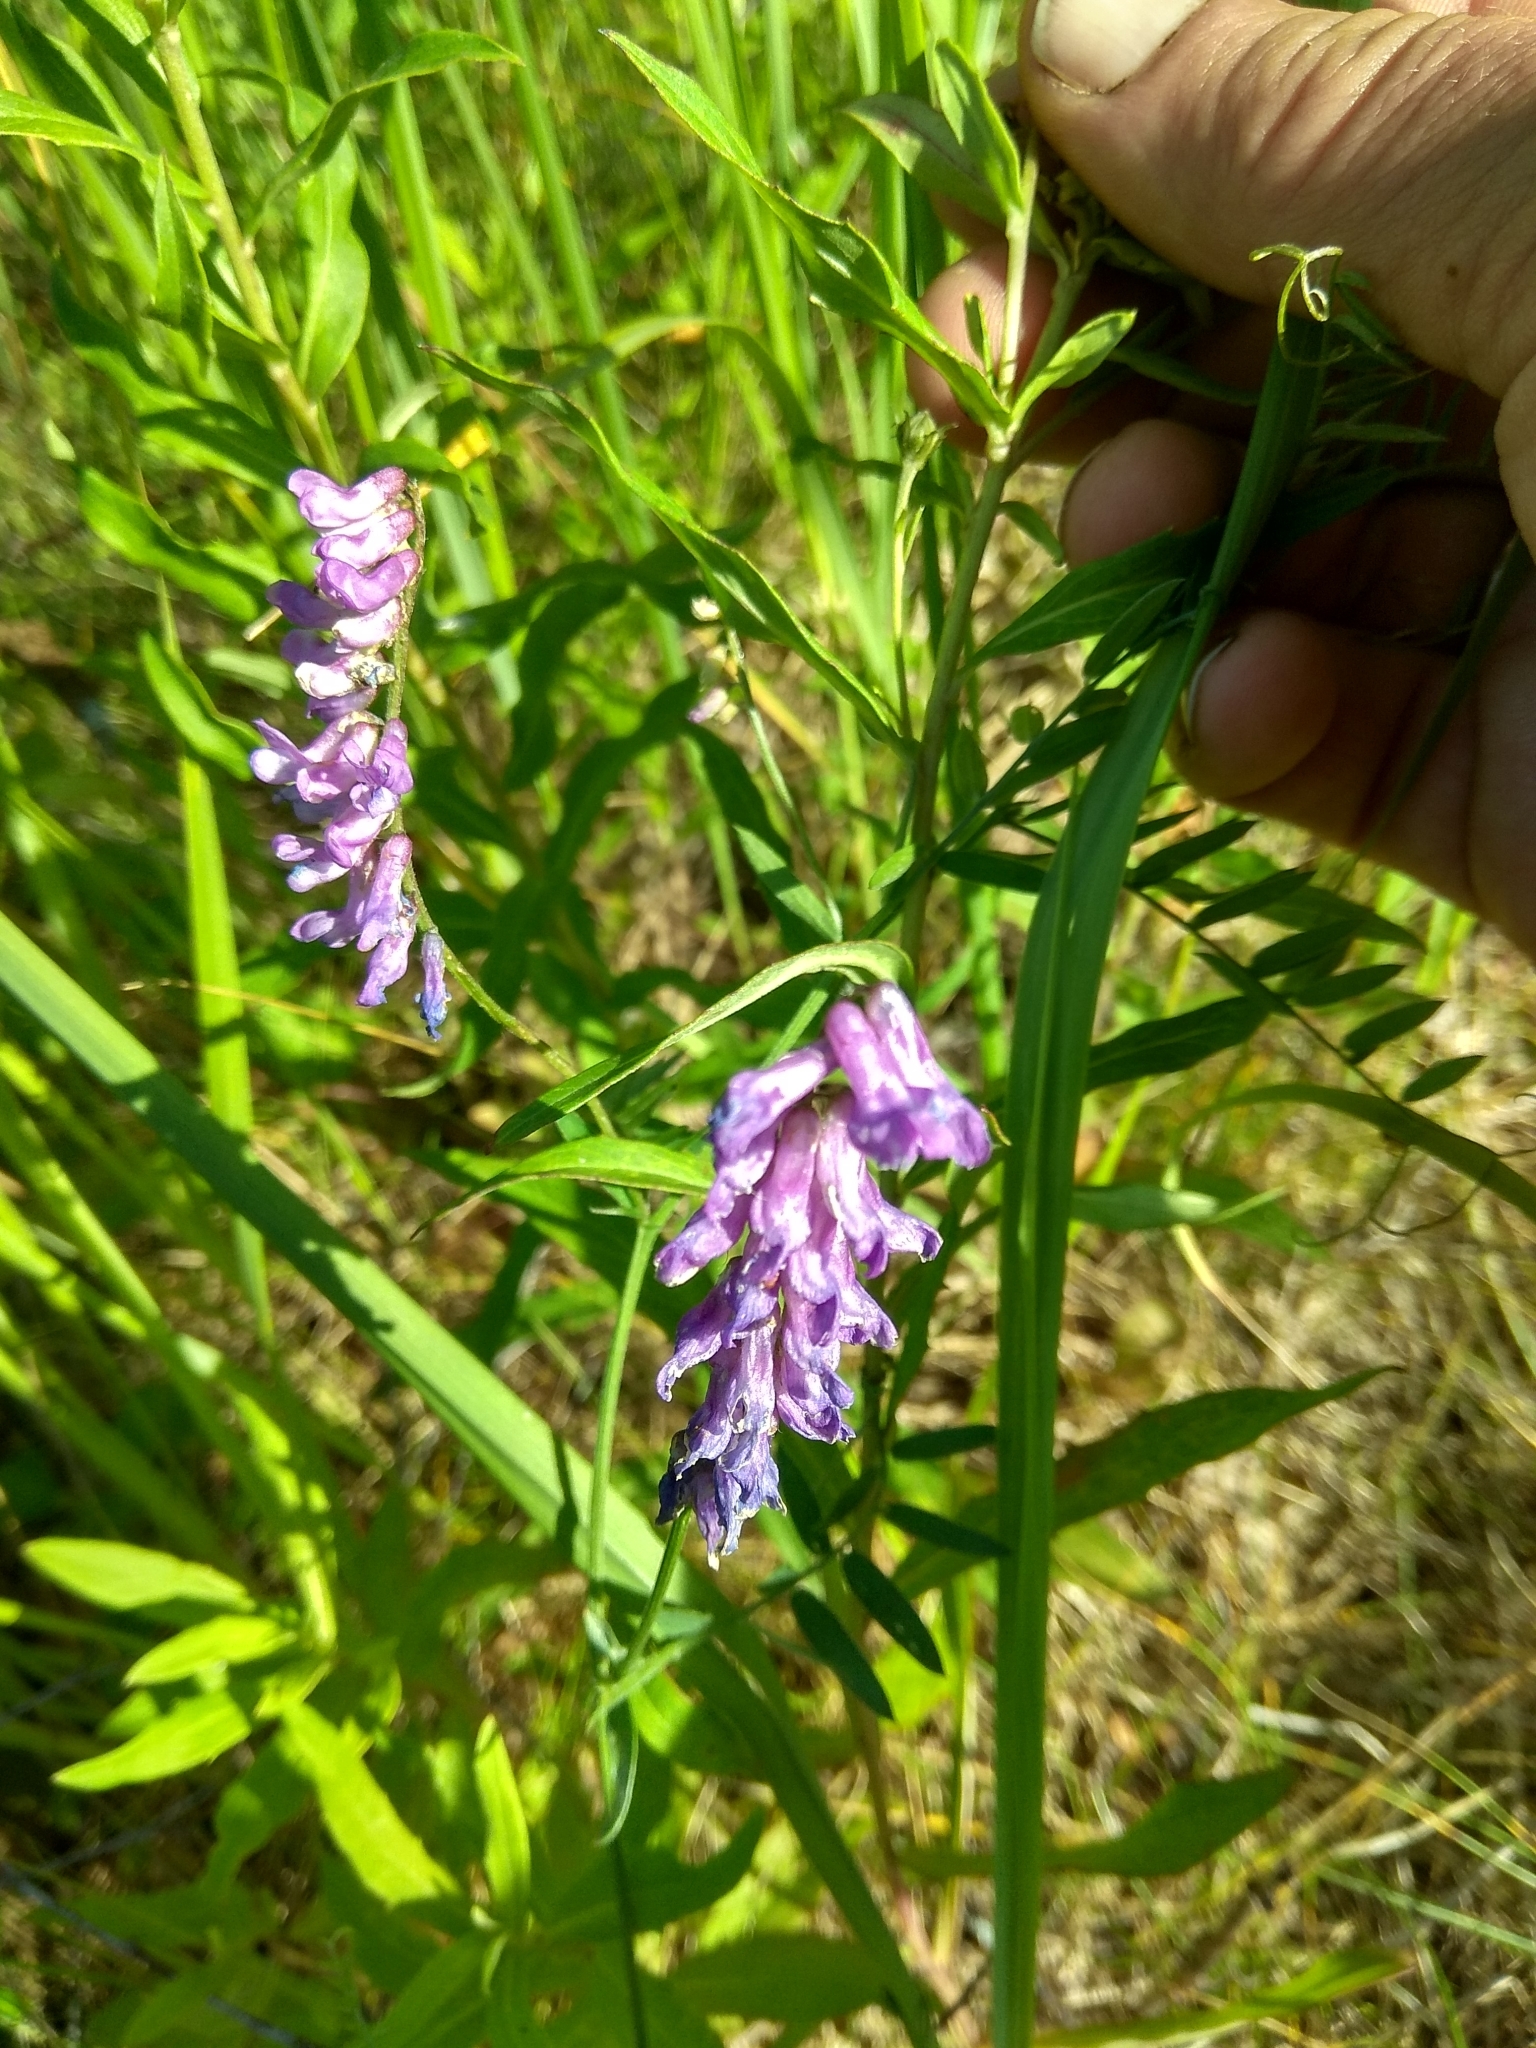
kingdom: Plantae
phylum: Tracheophyta
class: Magnoliopsida
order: Fabales
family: Fabaceae
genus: Vicia
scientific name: Vicia cracca
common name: Bird vetch
